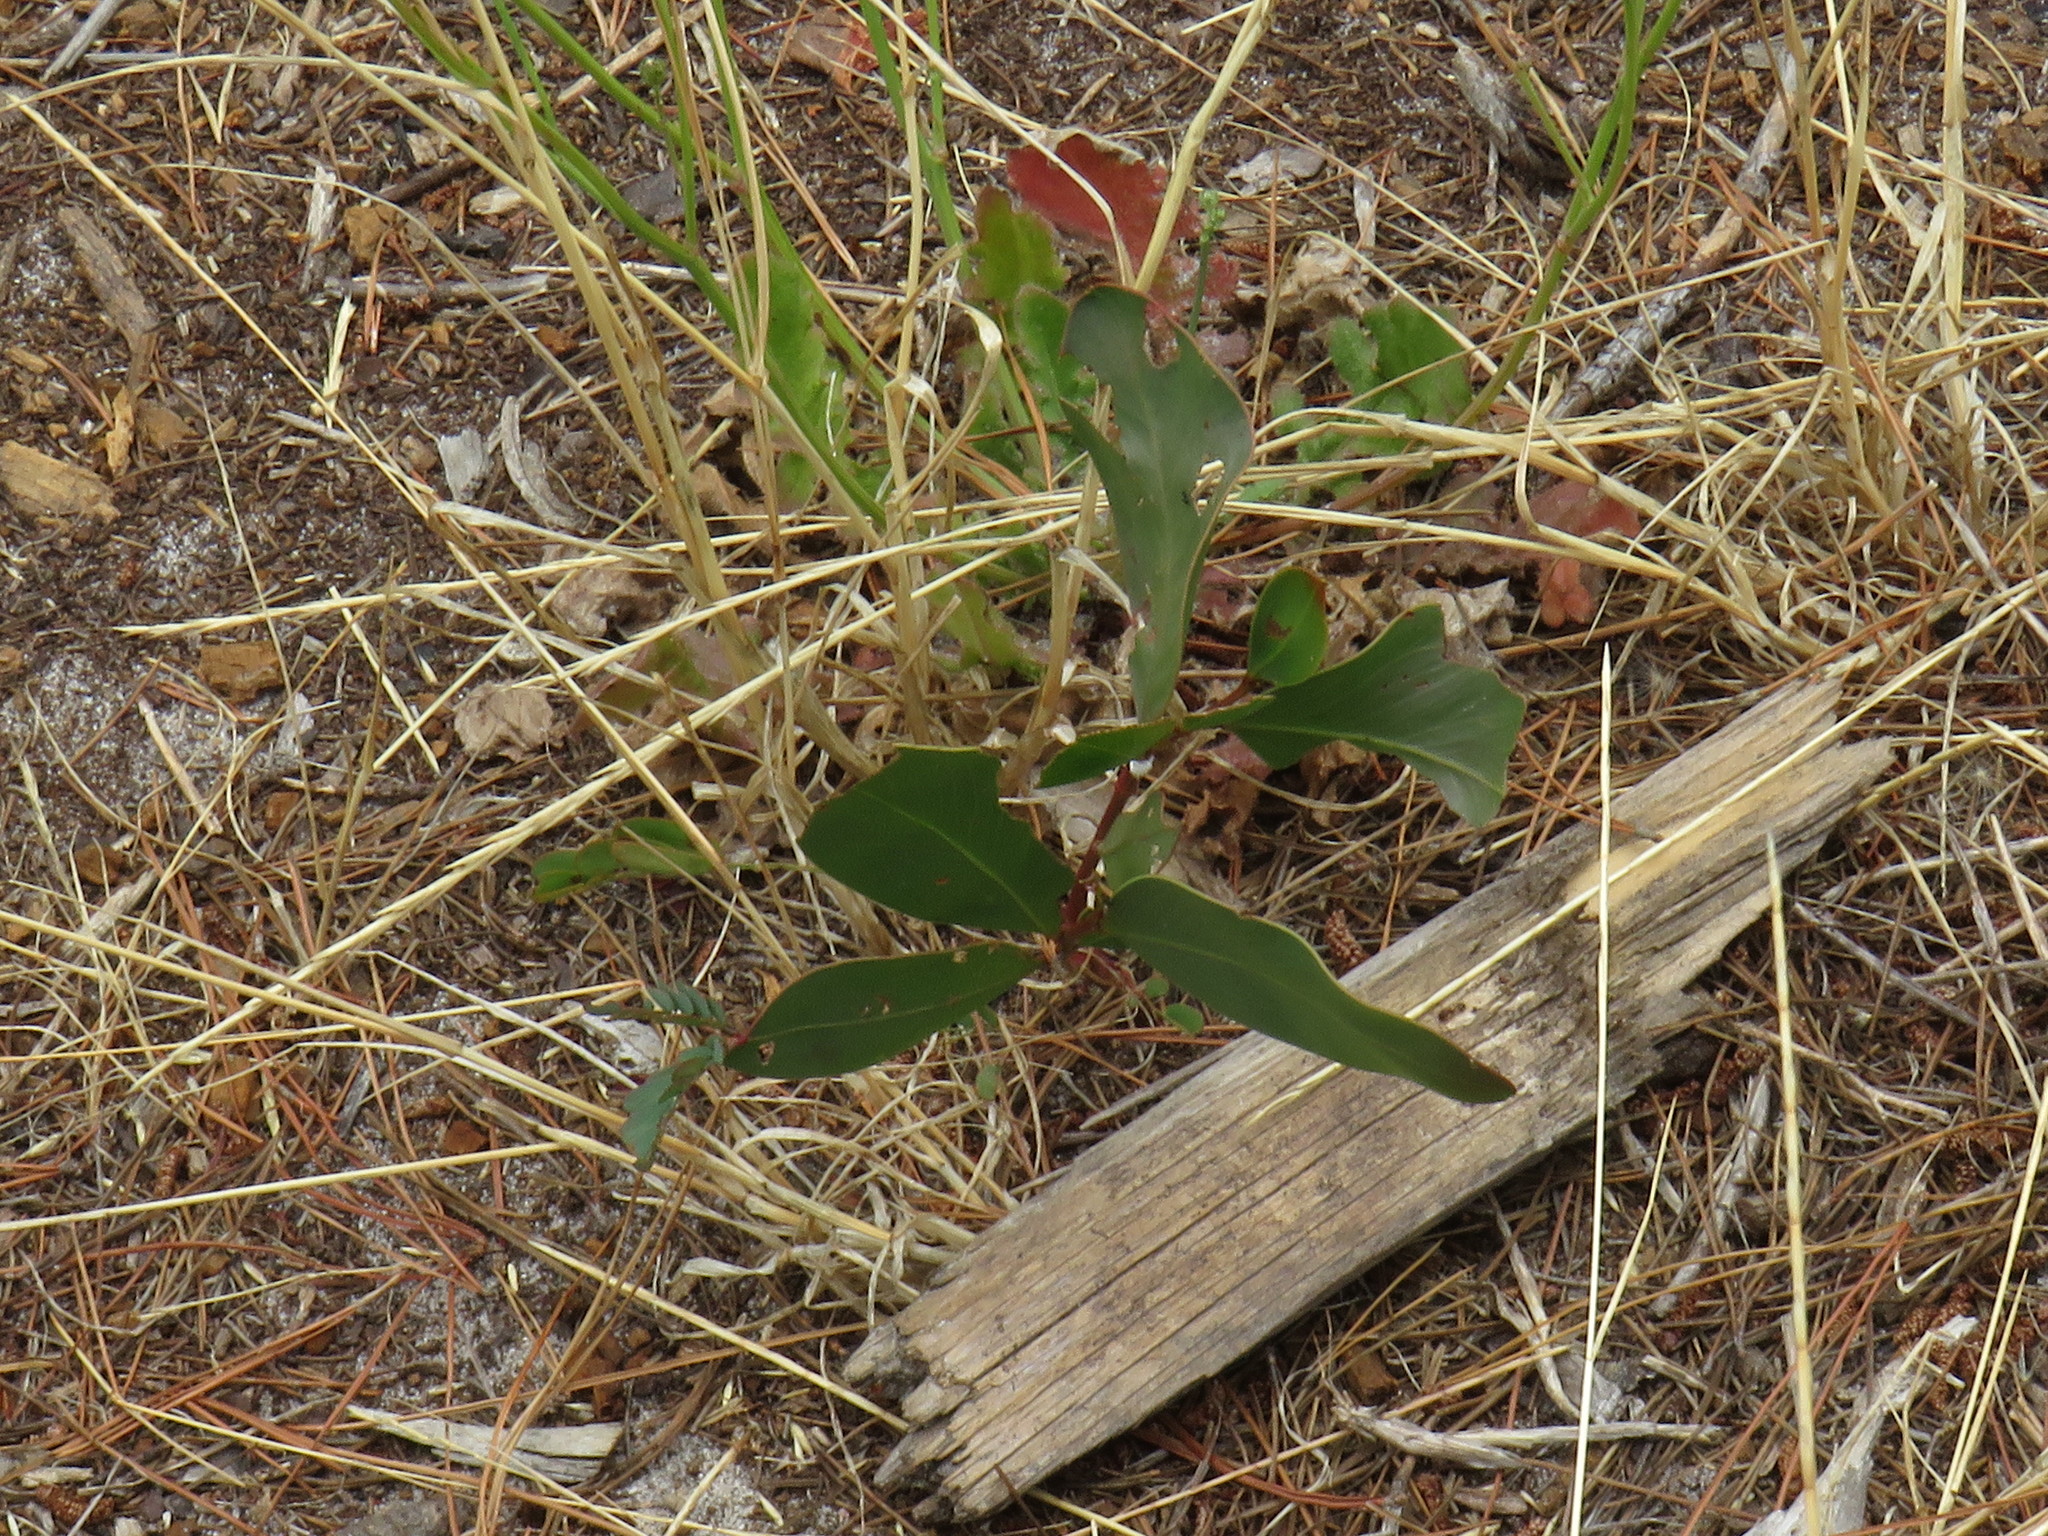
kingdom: Plantae
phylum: Tracheophyta
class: Magnoliopsida
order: Fabales
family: Fabaceae
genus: Acacia
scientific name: Acacia pycnantha
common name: Golden wattle
